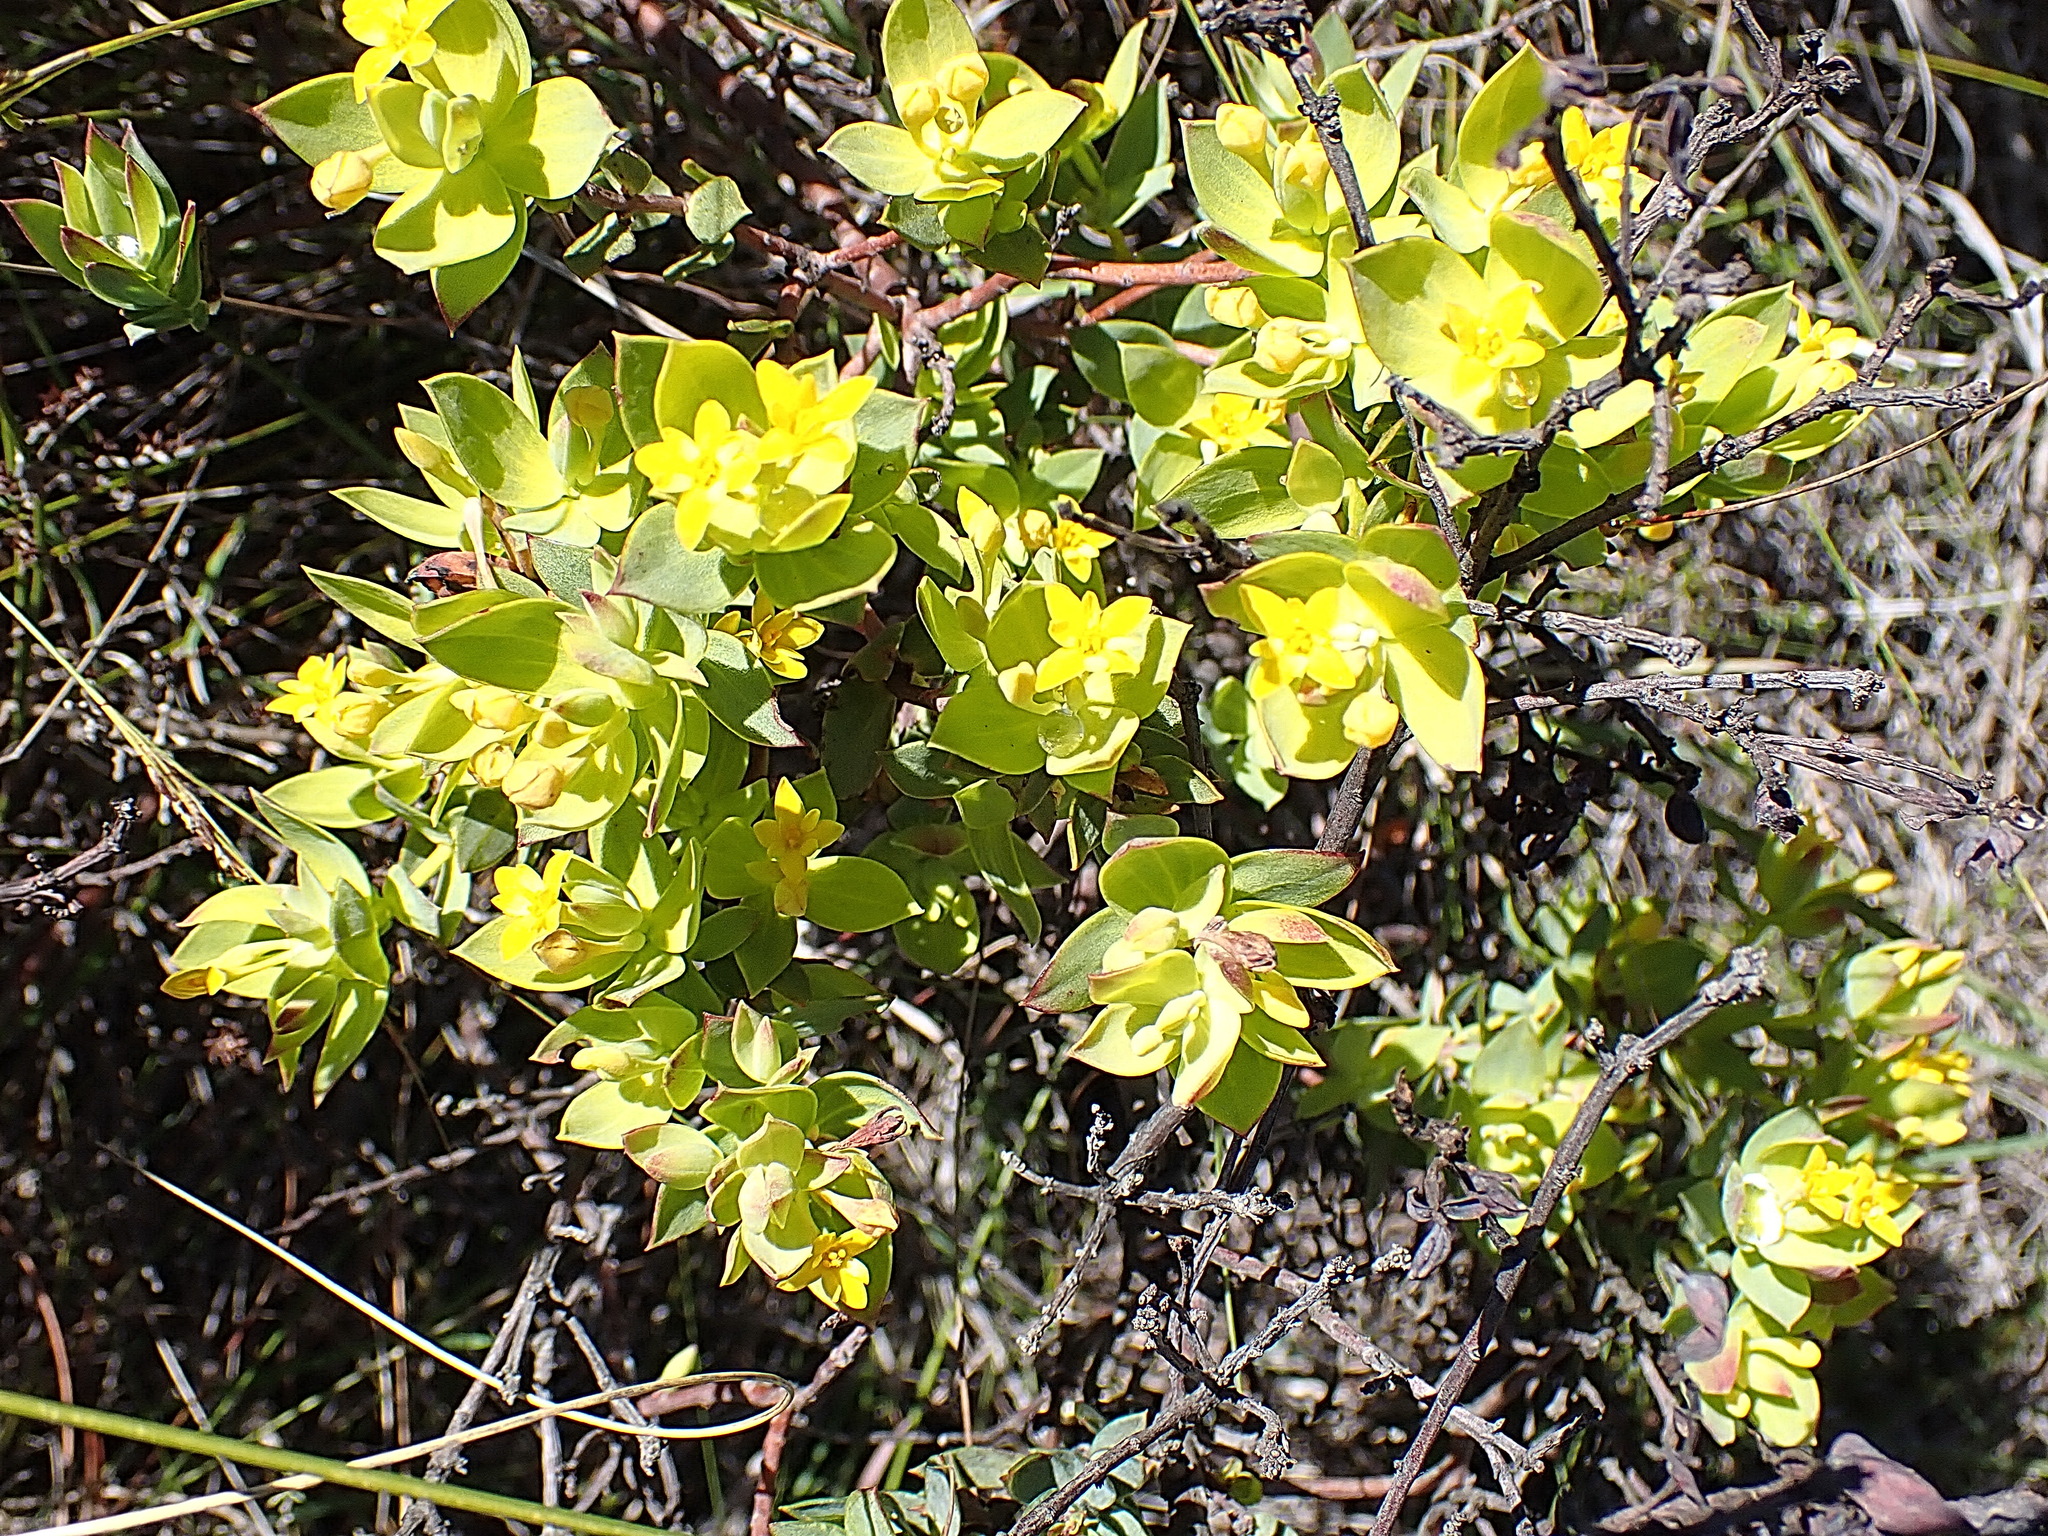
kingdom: Plantae
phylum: Tracheophyta
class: Magnoliopsida
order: Malvales
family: Thymelaeaceae
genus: Gnidia
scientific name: Gnidia juniperifolia
